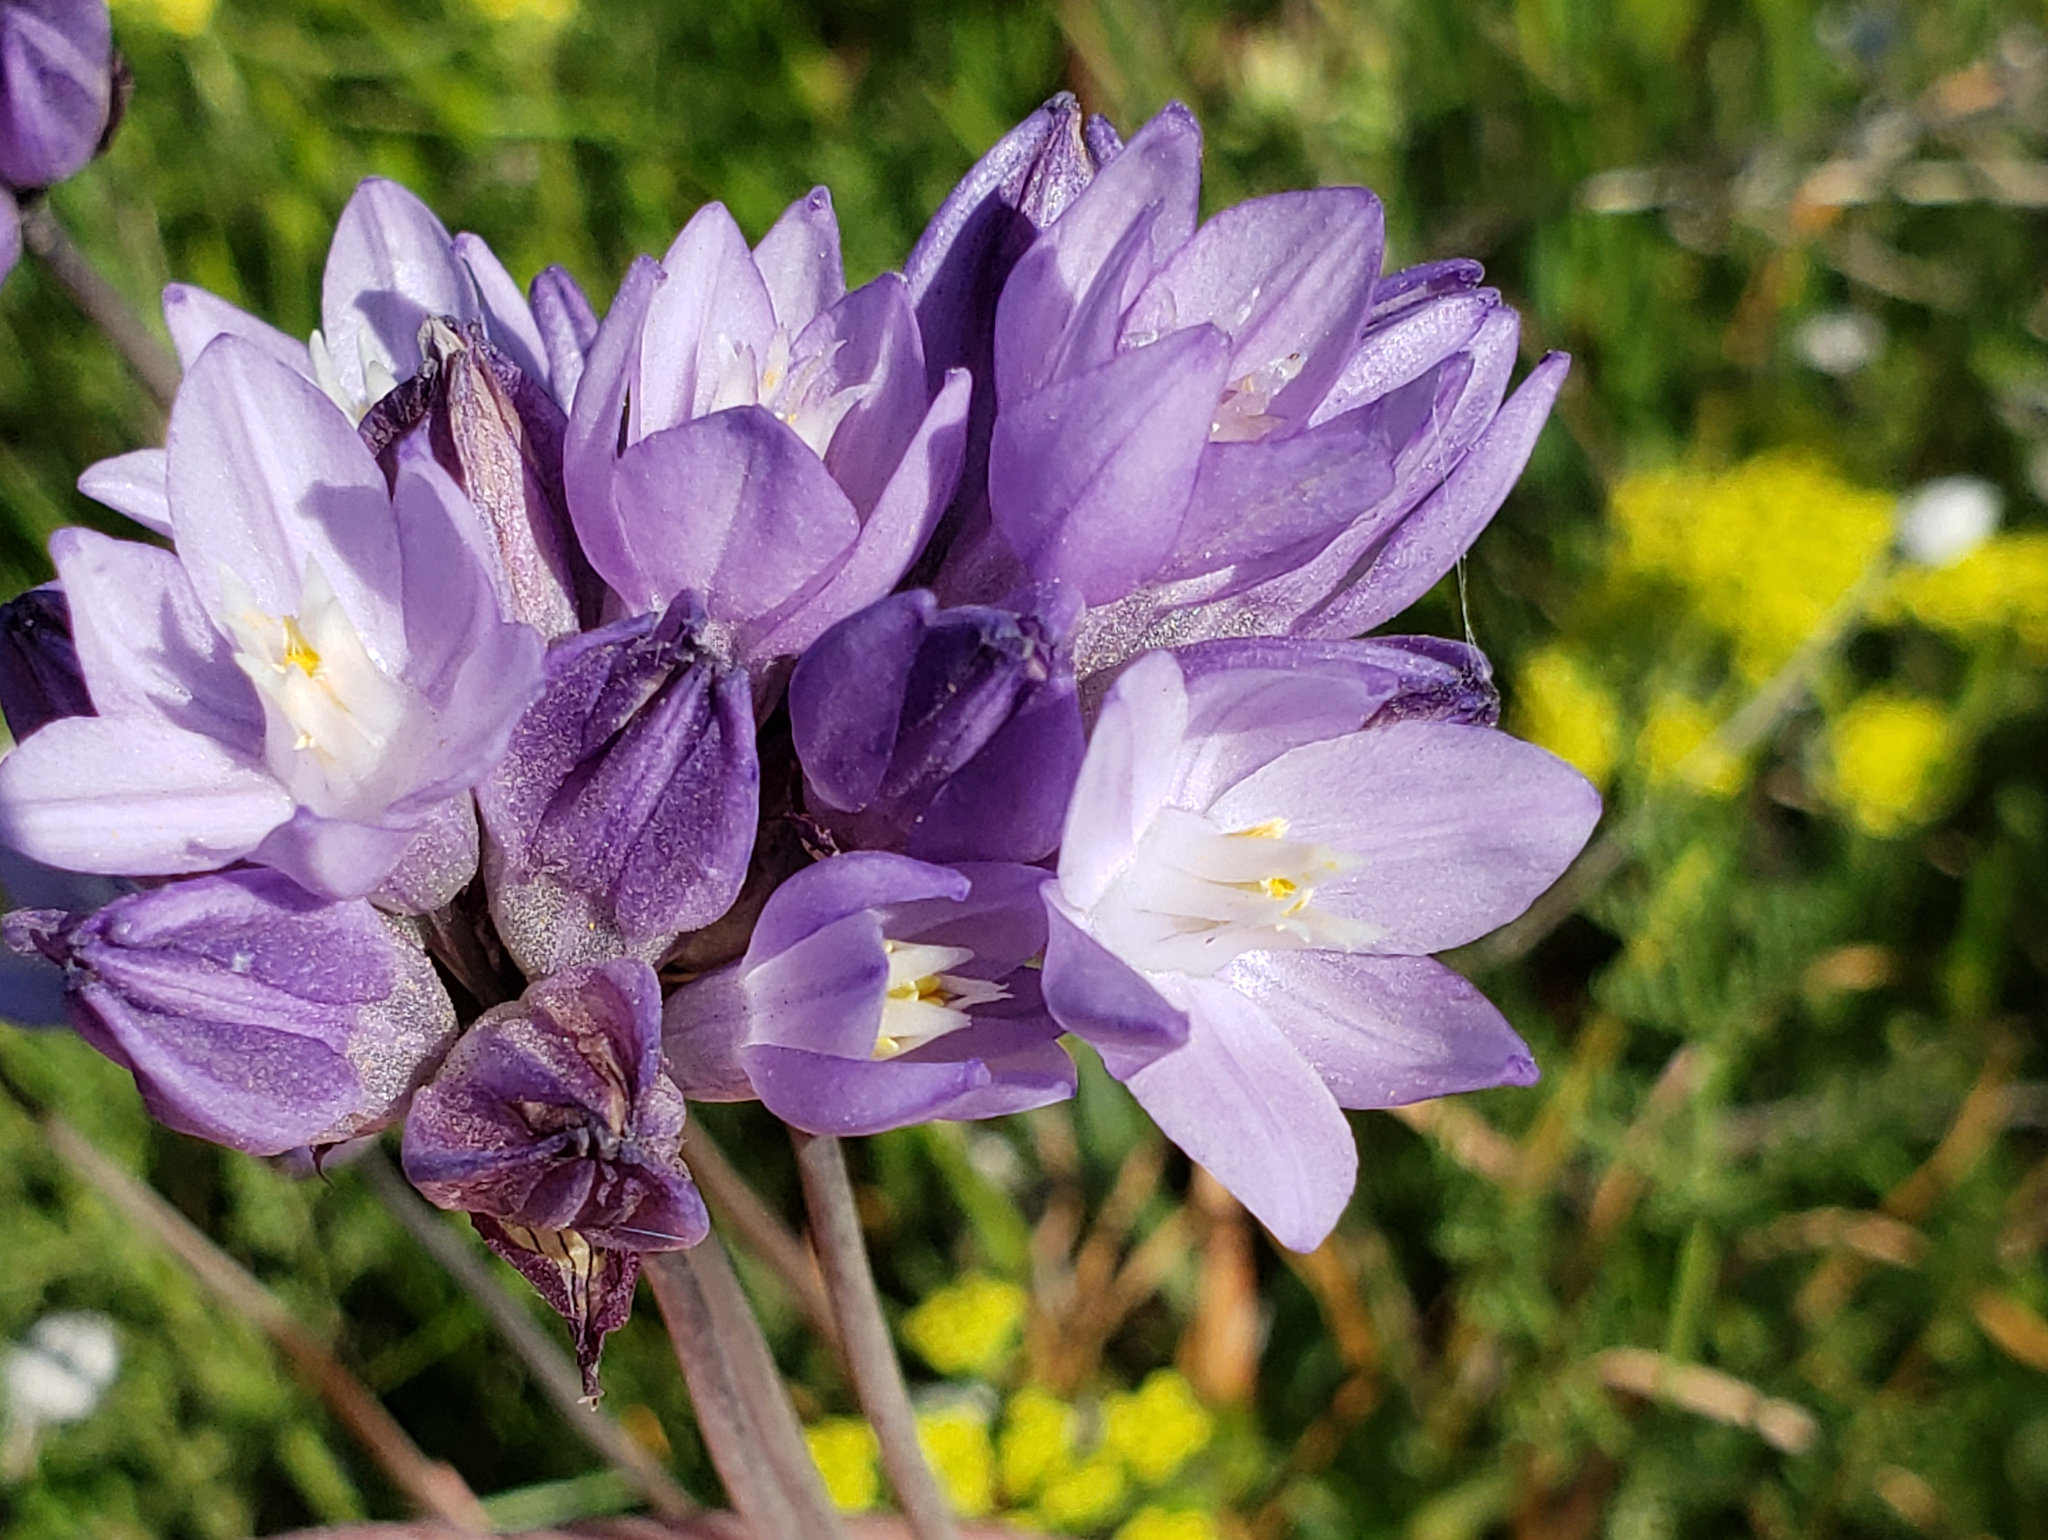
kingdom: Plantae
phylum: Tracheophyta
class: Liliopsida
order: Asparagales
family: Asparagaceae
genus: Dipterostemon
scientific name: Dipterostemon capitatus
